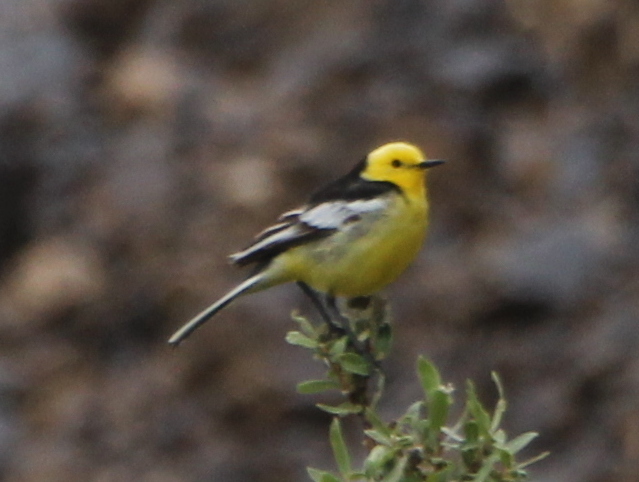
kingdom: Animalia
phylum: Chordata
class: Aves
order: Passeriformes
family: Motacillidae
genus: Motacilla
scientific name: Motacilla citreola
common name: Citrine wagtail
